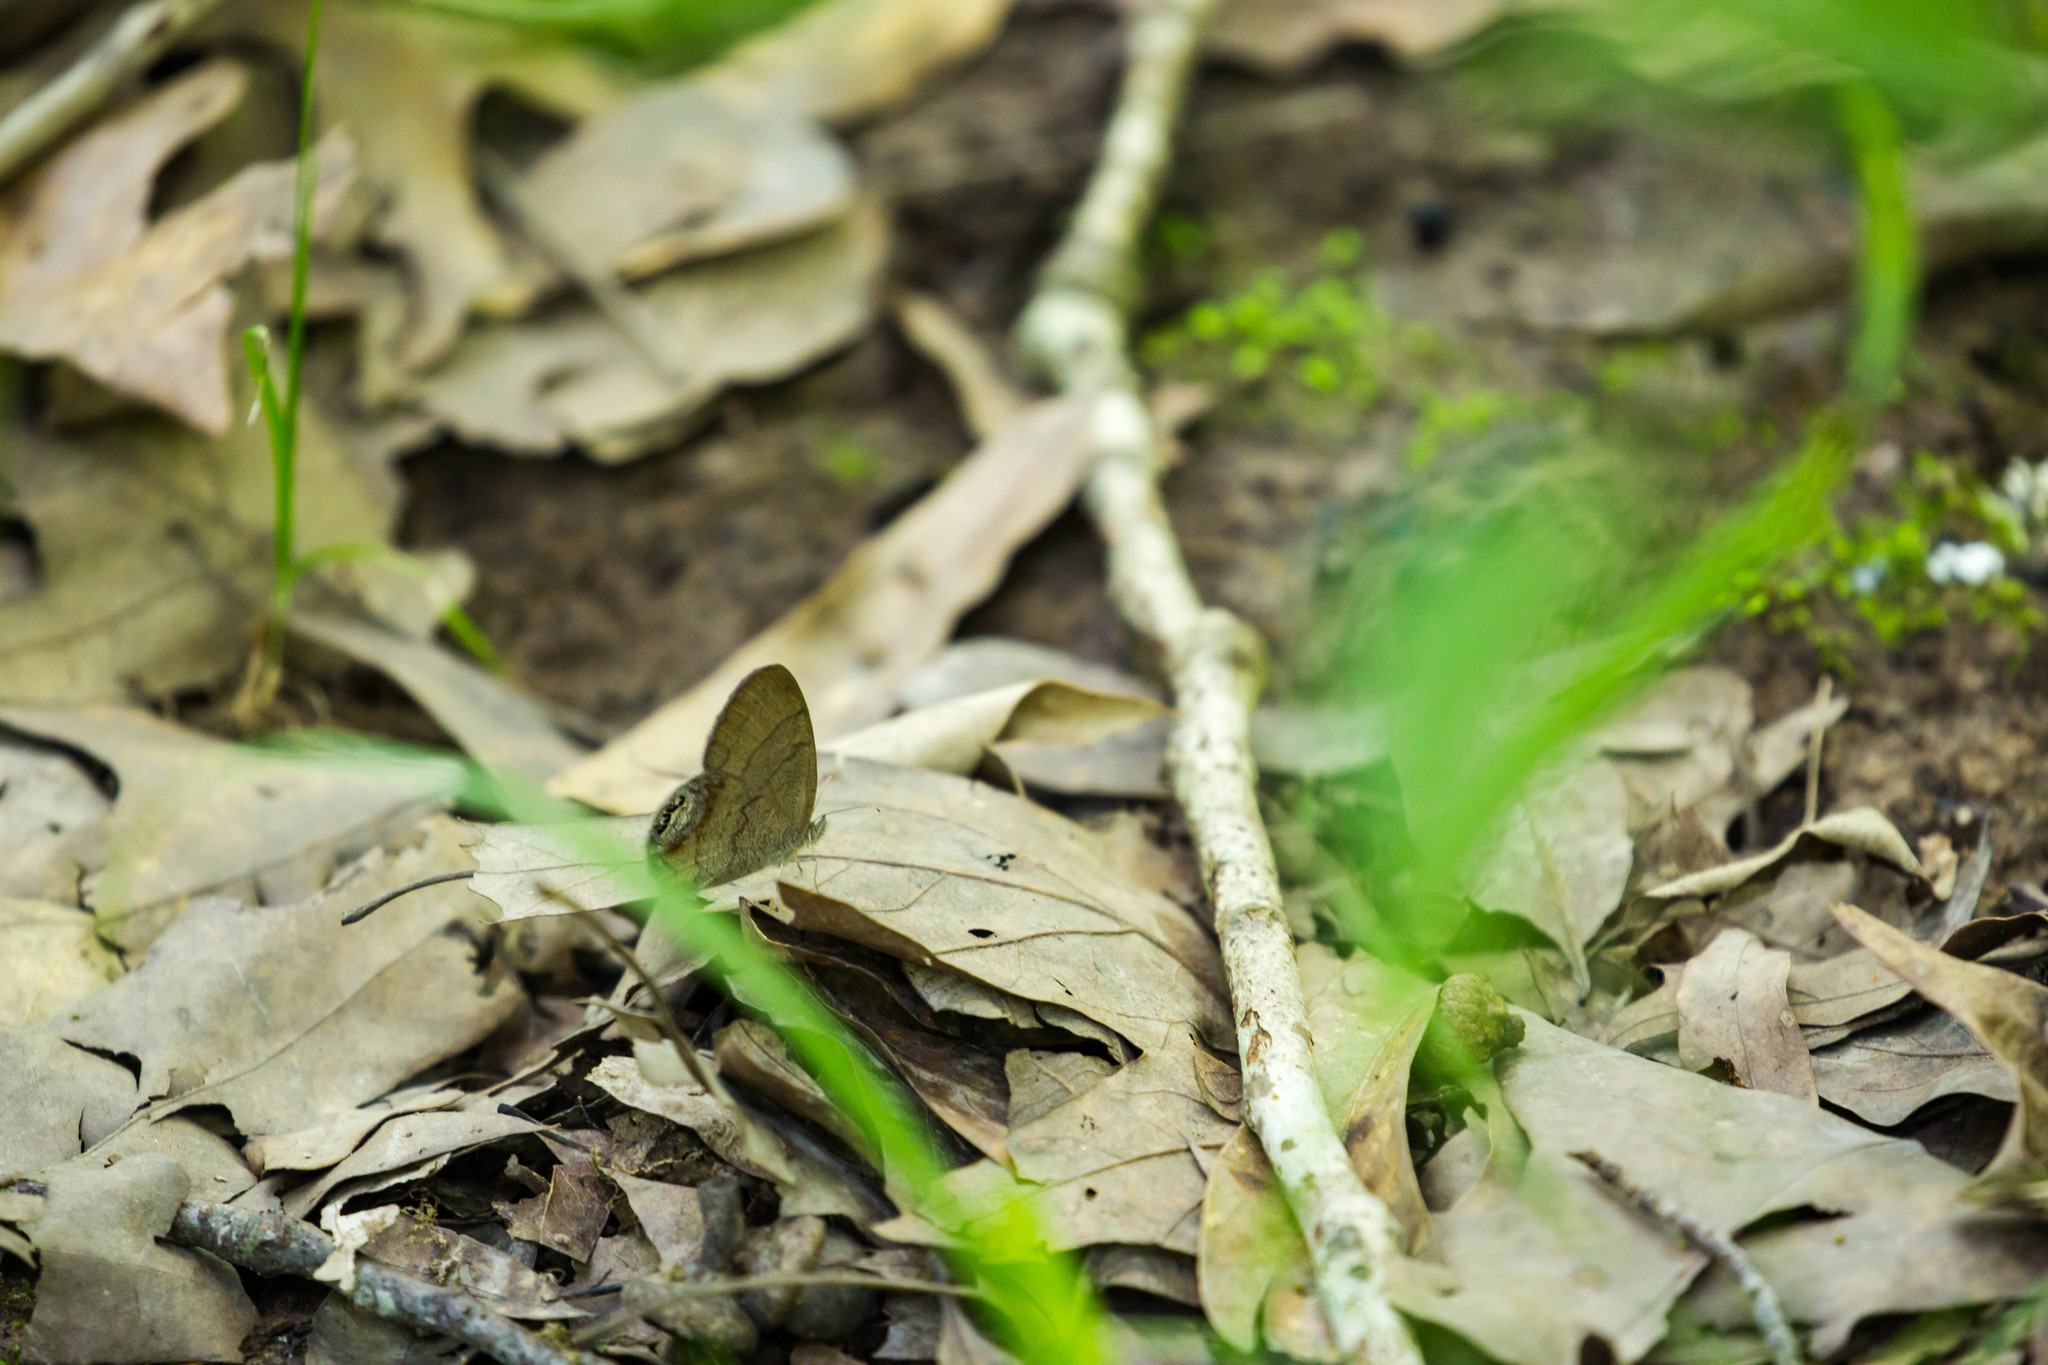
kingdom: Animalia
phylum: Arthropoda
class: Insecta
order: Lepidoptera
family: Nymphalidae
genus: Euptychia
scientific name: Euptychia cornelius
